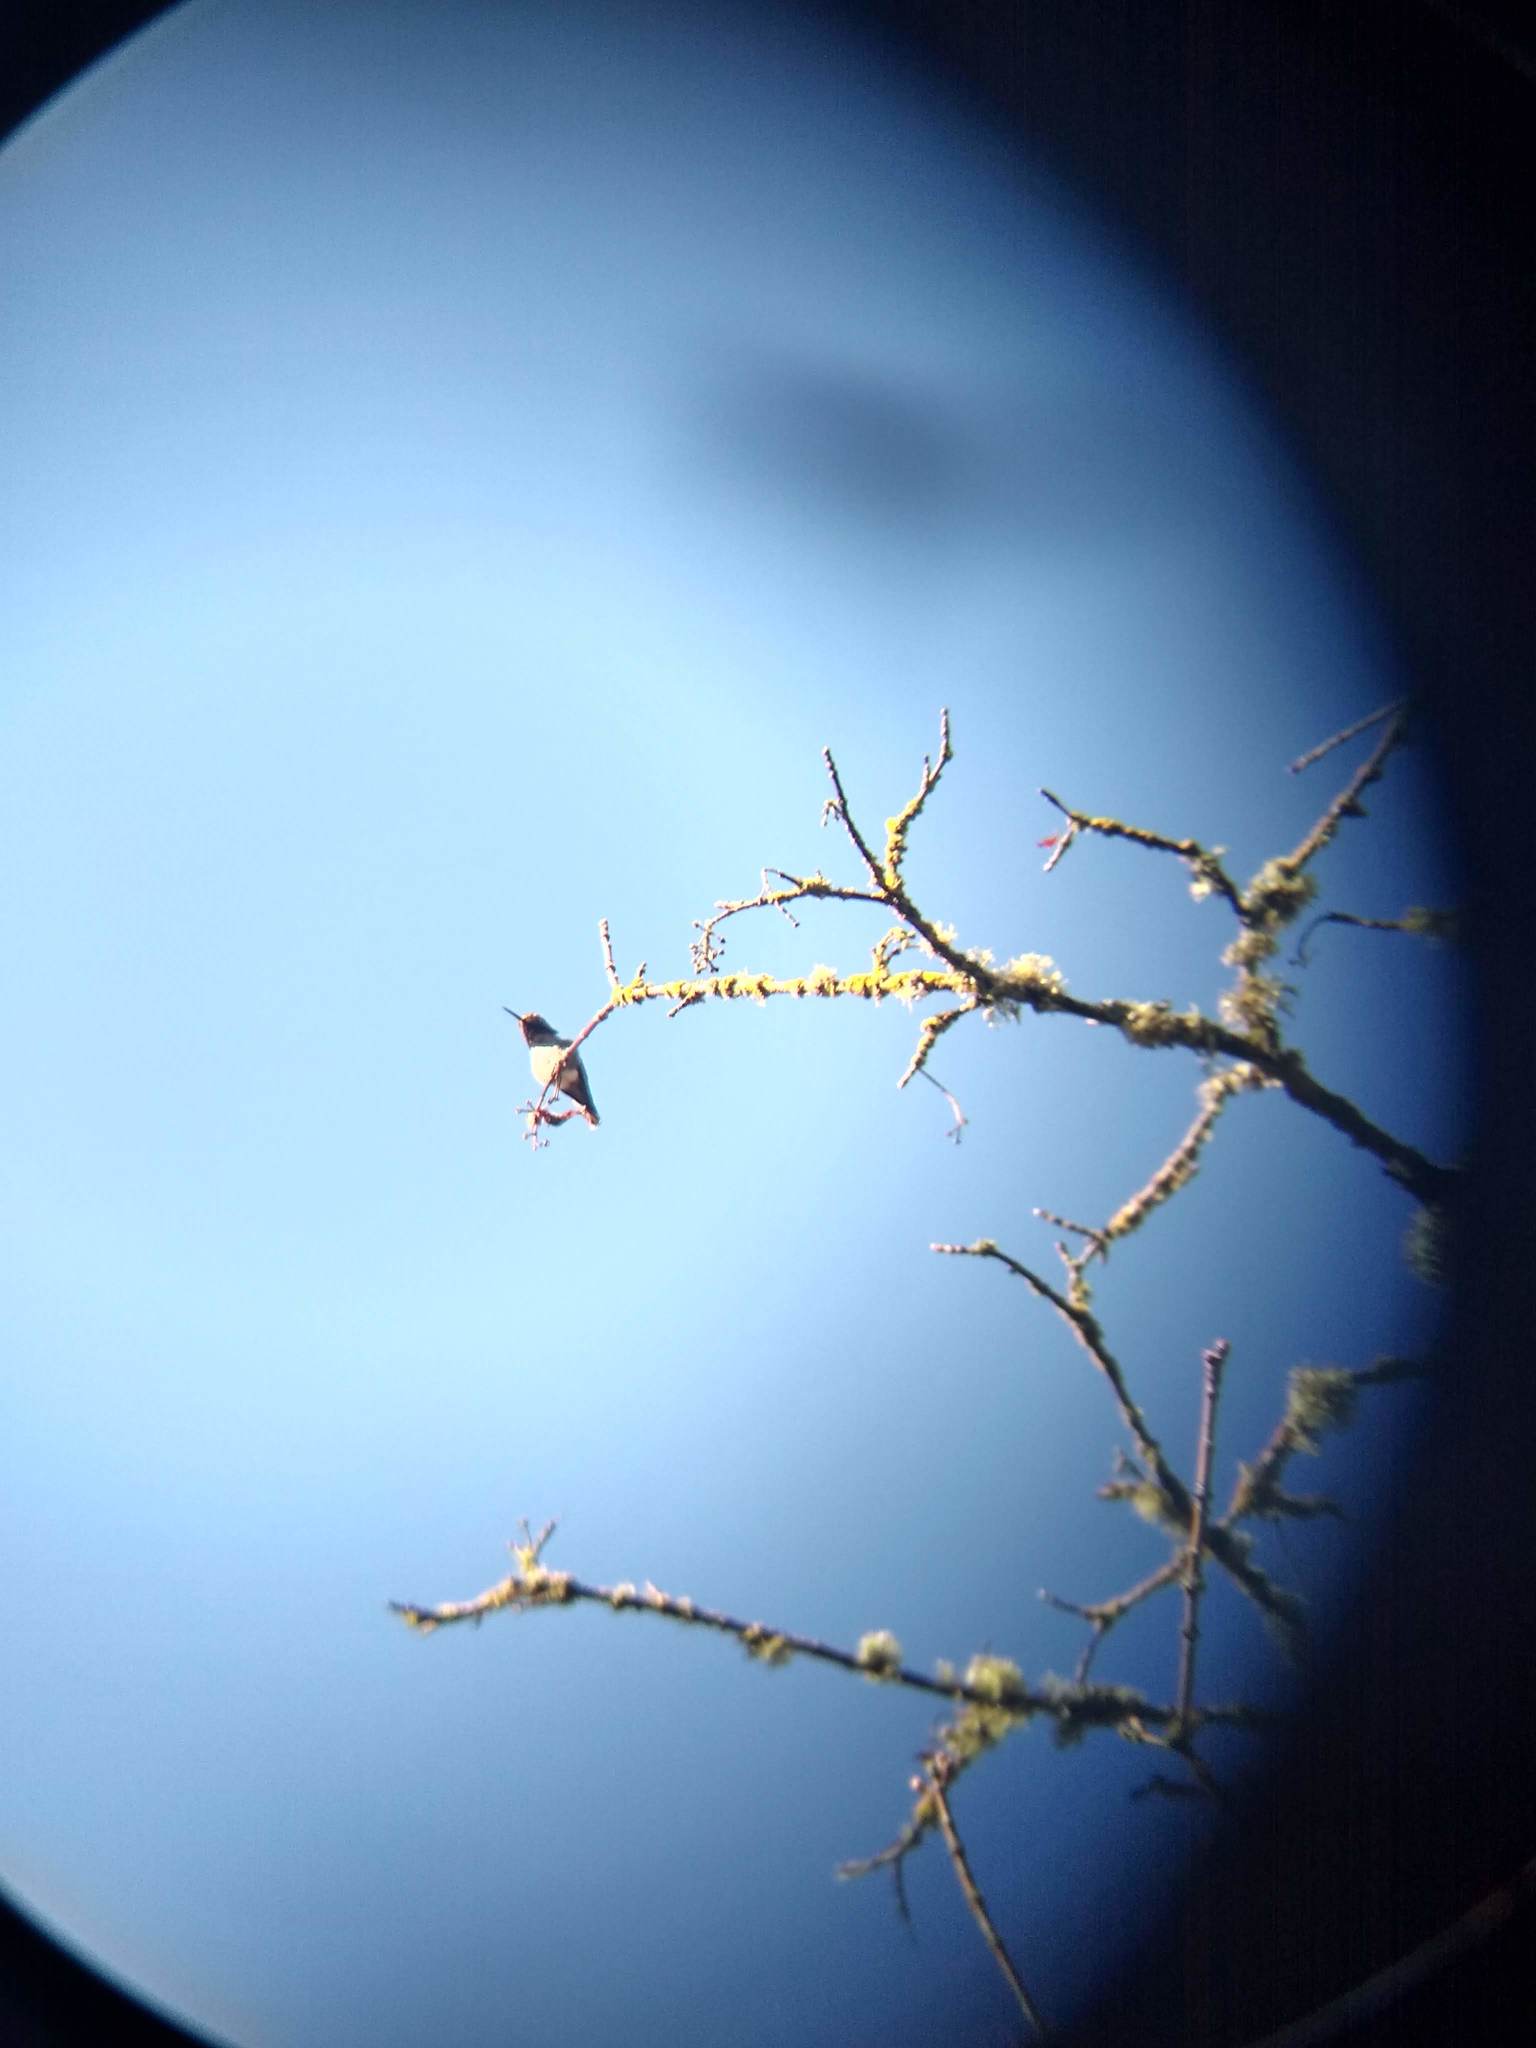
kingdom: Animalia
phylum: Chordata
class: Aves
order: Apodiformes
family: Trochilidae
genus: Calypte
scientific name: Calypte anna
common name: Anna's hummingbird
